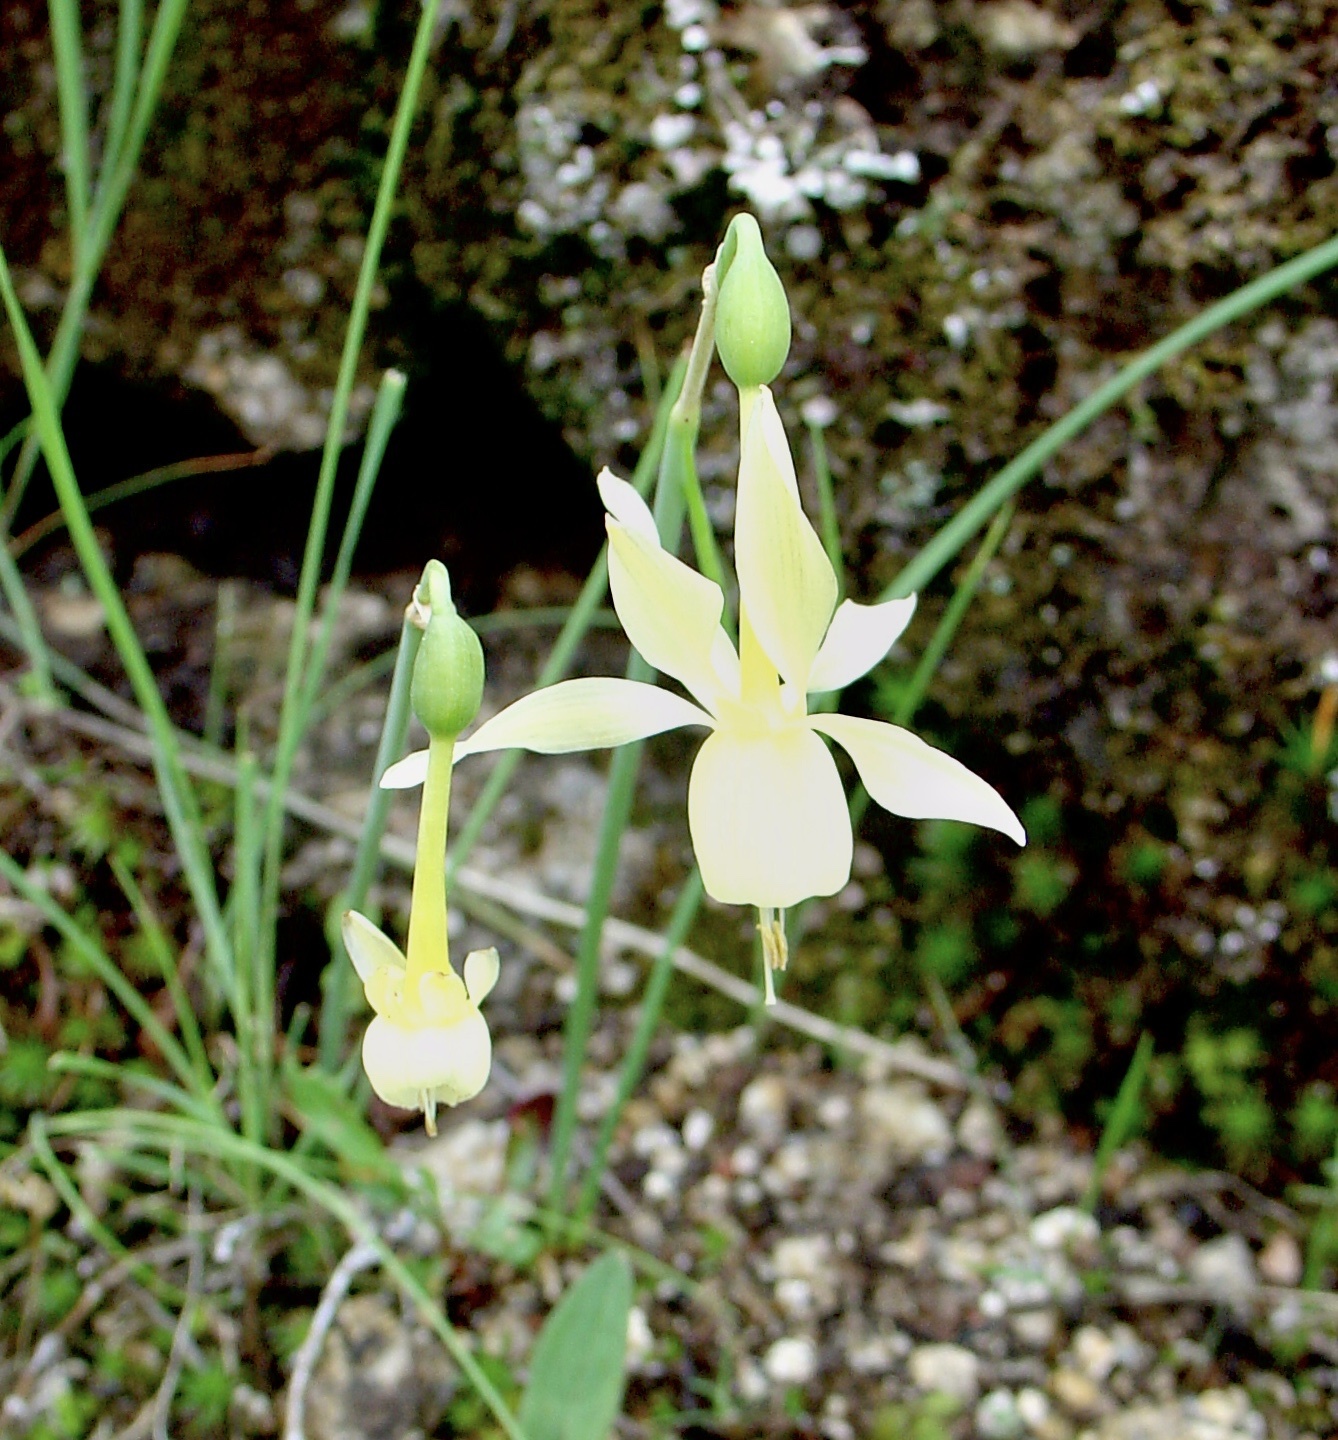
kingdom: Plantae
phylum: Tracheophyta
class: Liliopsida
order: Asparagales
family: Amaryllidaceae
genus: Narcissus
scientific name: Narcissus triandrus
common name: Angel's-tears
